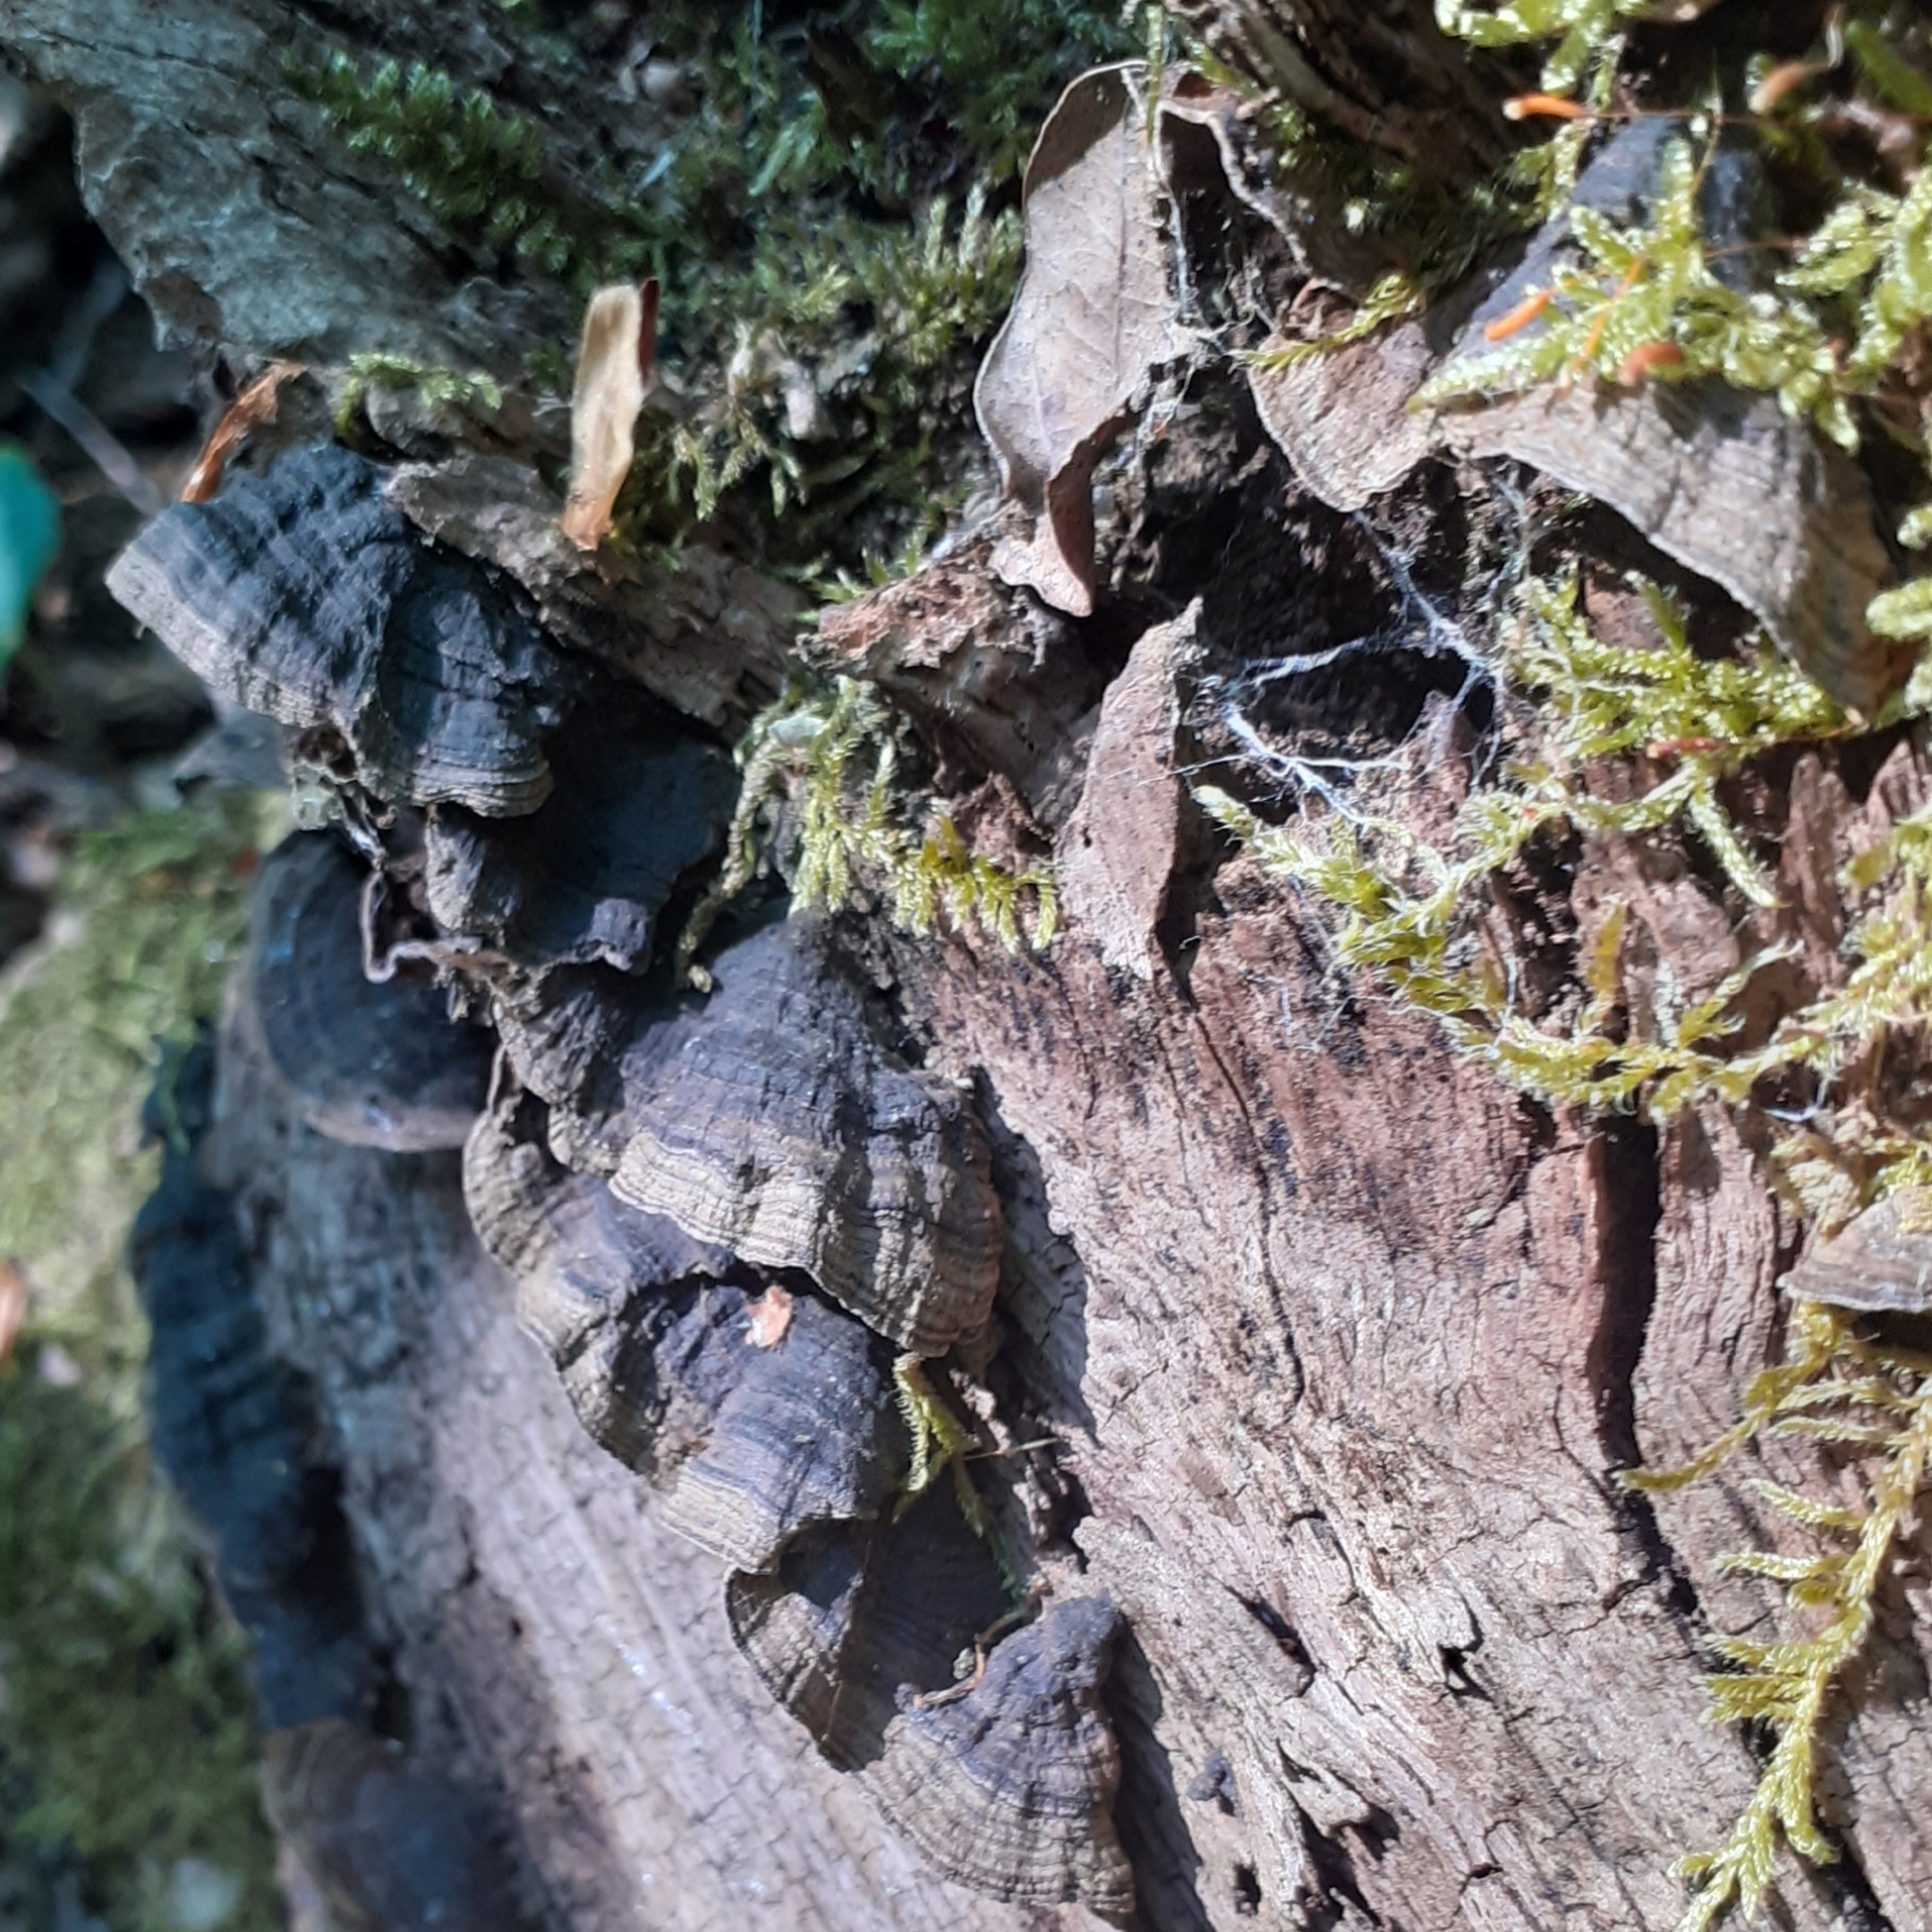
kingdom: Fungi
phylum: Basidiomycota
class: Agaricomycetes
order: Hymenochaetales
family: Hymenochaetaceae
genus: Hymenochaete
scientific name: Hymenochaete rubiginosa
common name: Oak curtain crust
